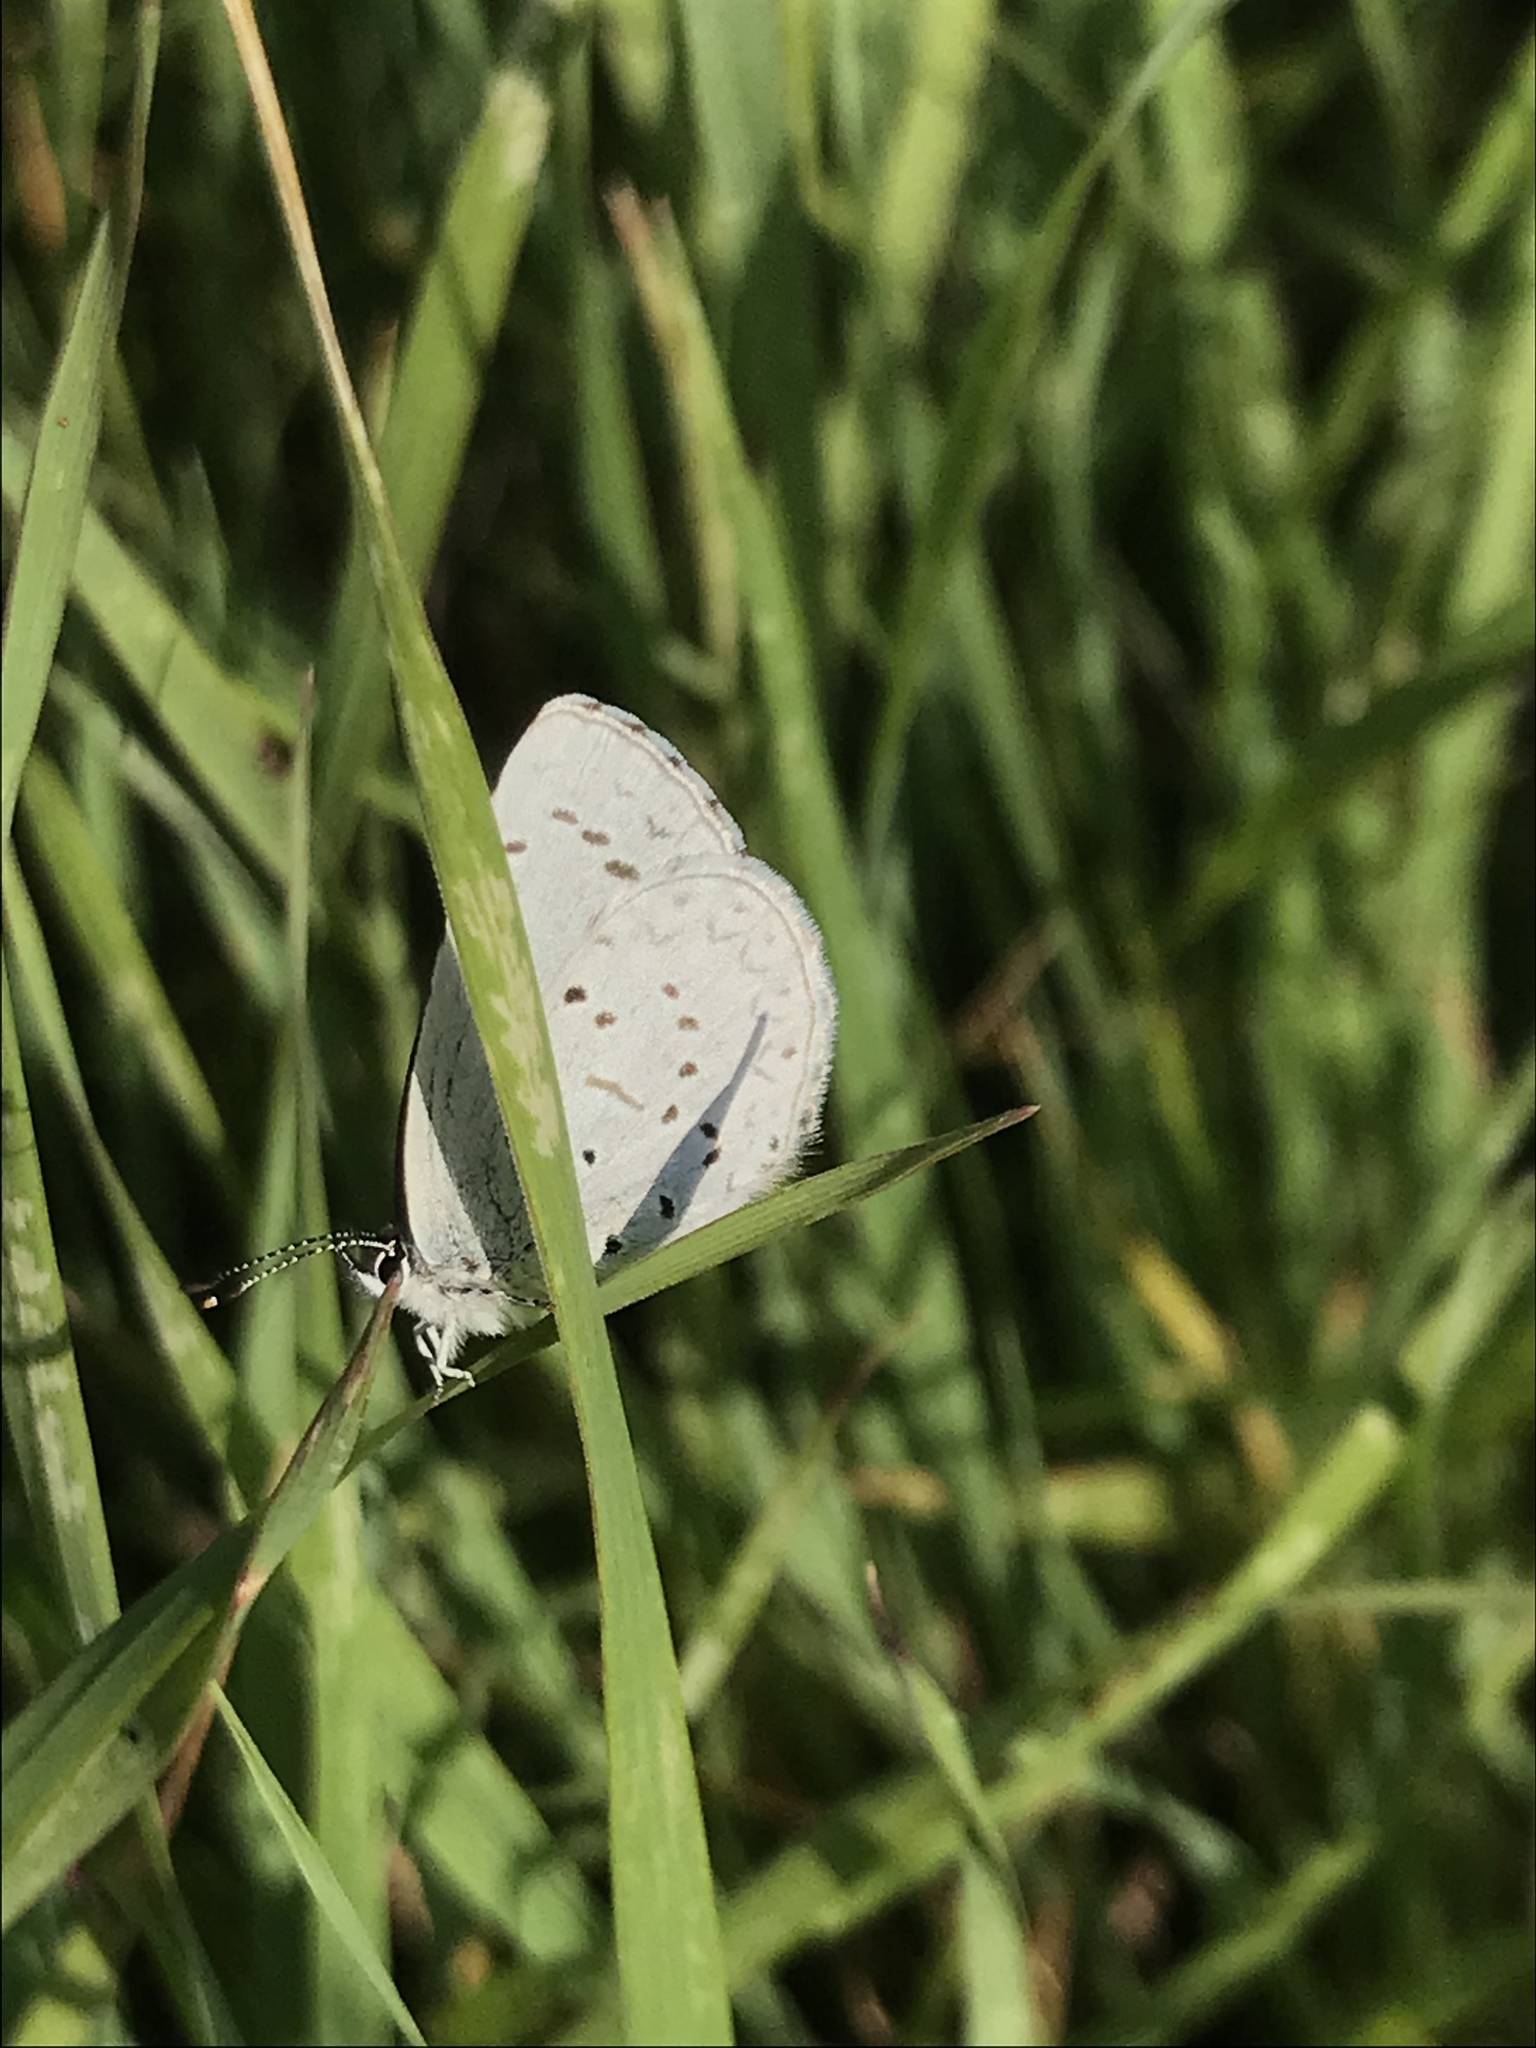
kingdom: Animalia
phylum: Arthropoda
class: Insecta
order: Lepidoptera
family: Lycaenidae
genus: Celastrina
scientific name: Celastrina ladon
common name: Spring azure
